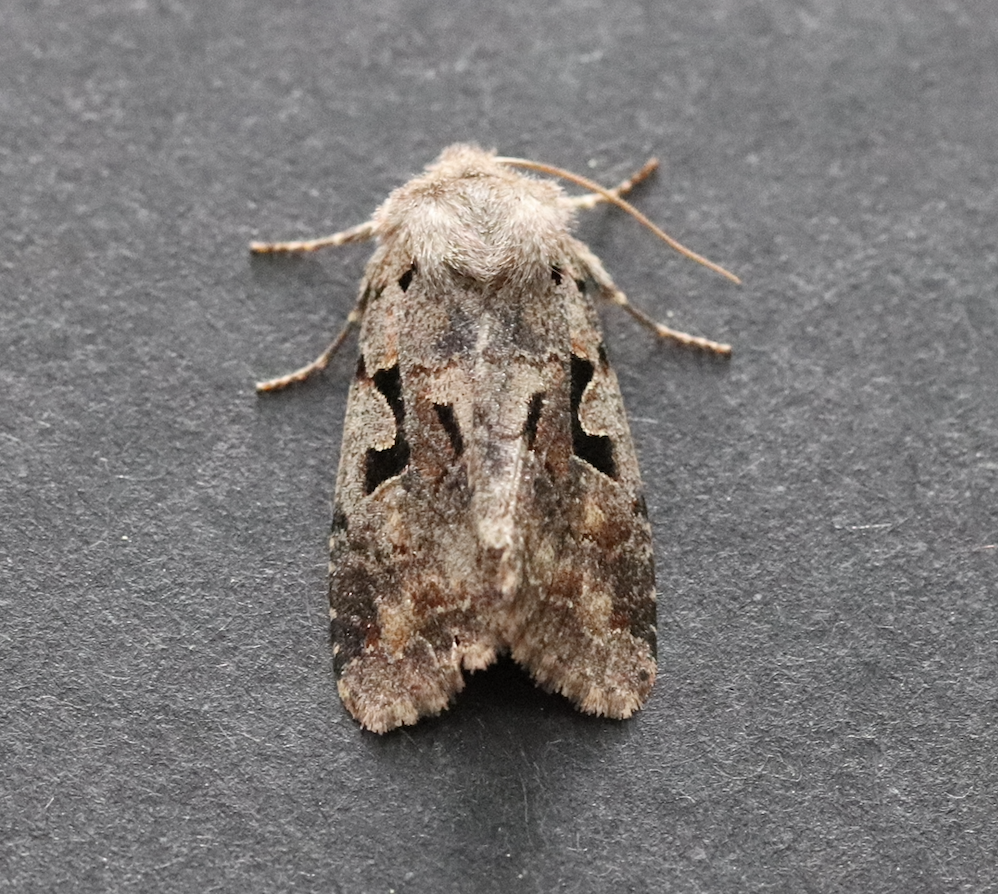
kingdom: Animalia
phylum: Arthropoda
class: Insecta
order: Lepidoptera
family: Noctuidae
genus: Orthosia
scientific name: Orthosia gothica
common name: Hebrew character
